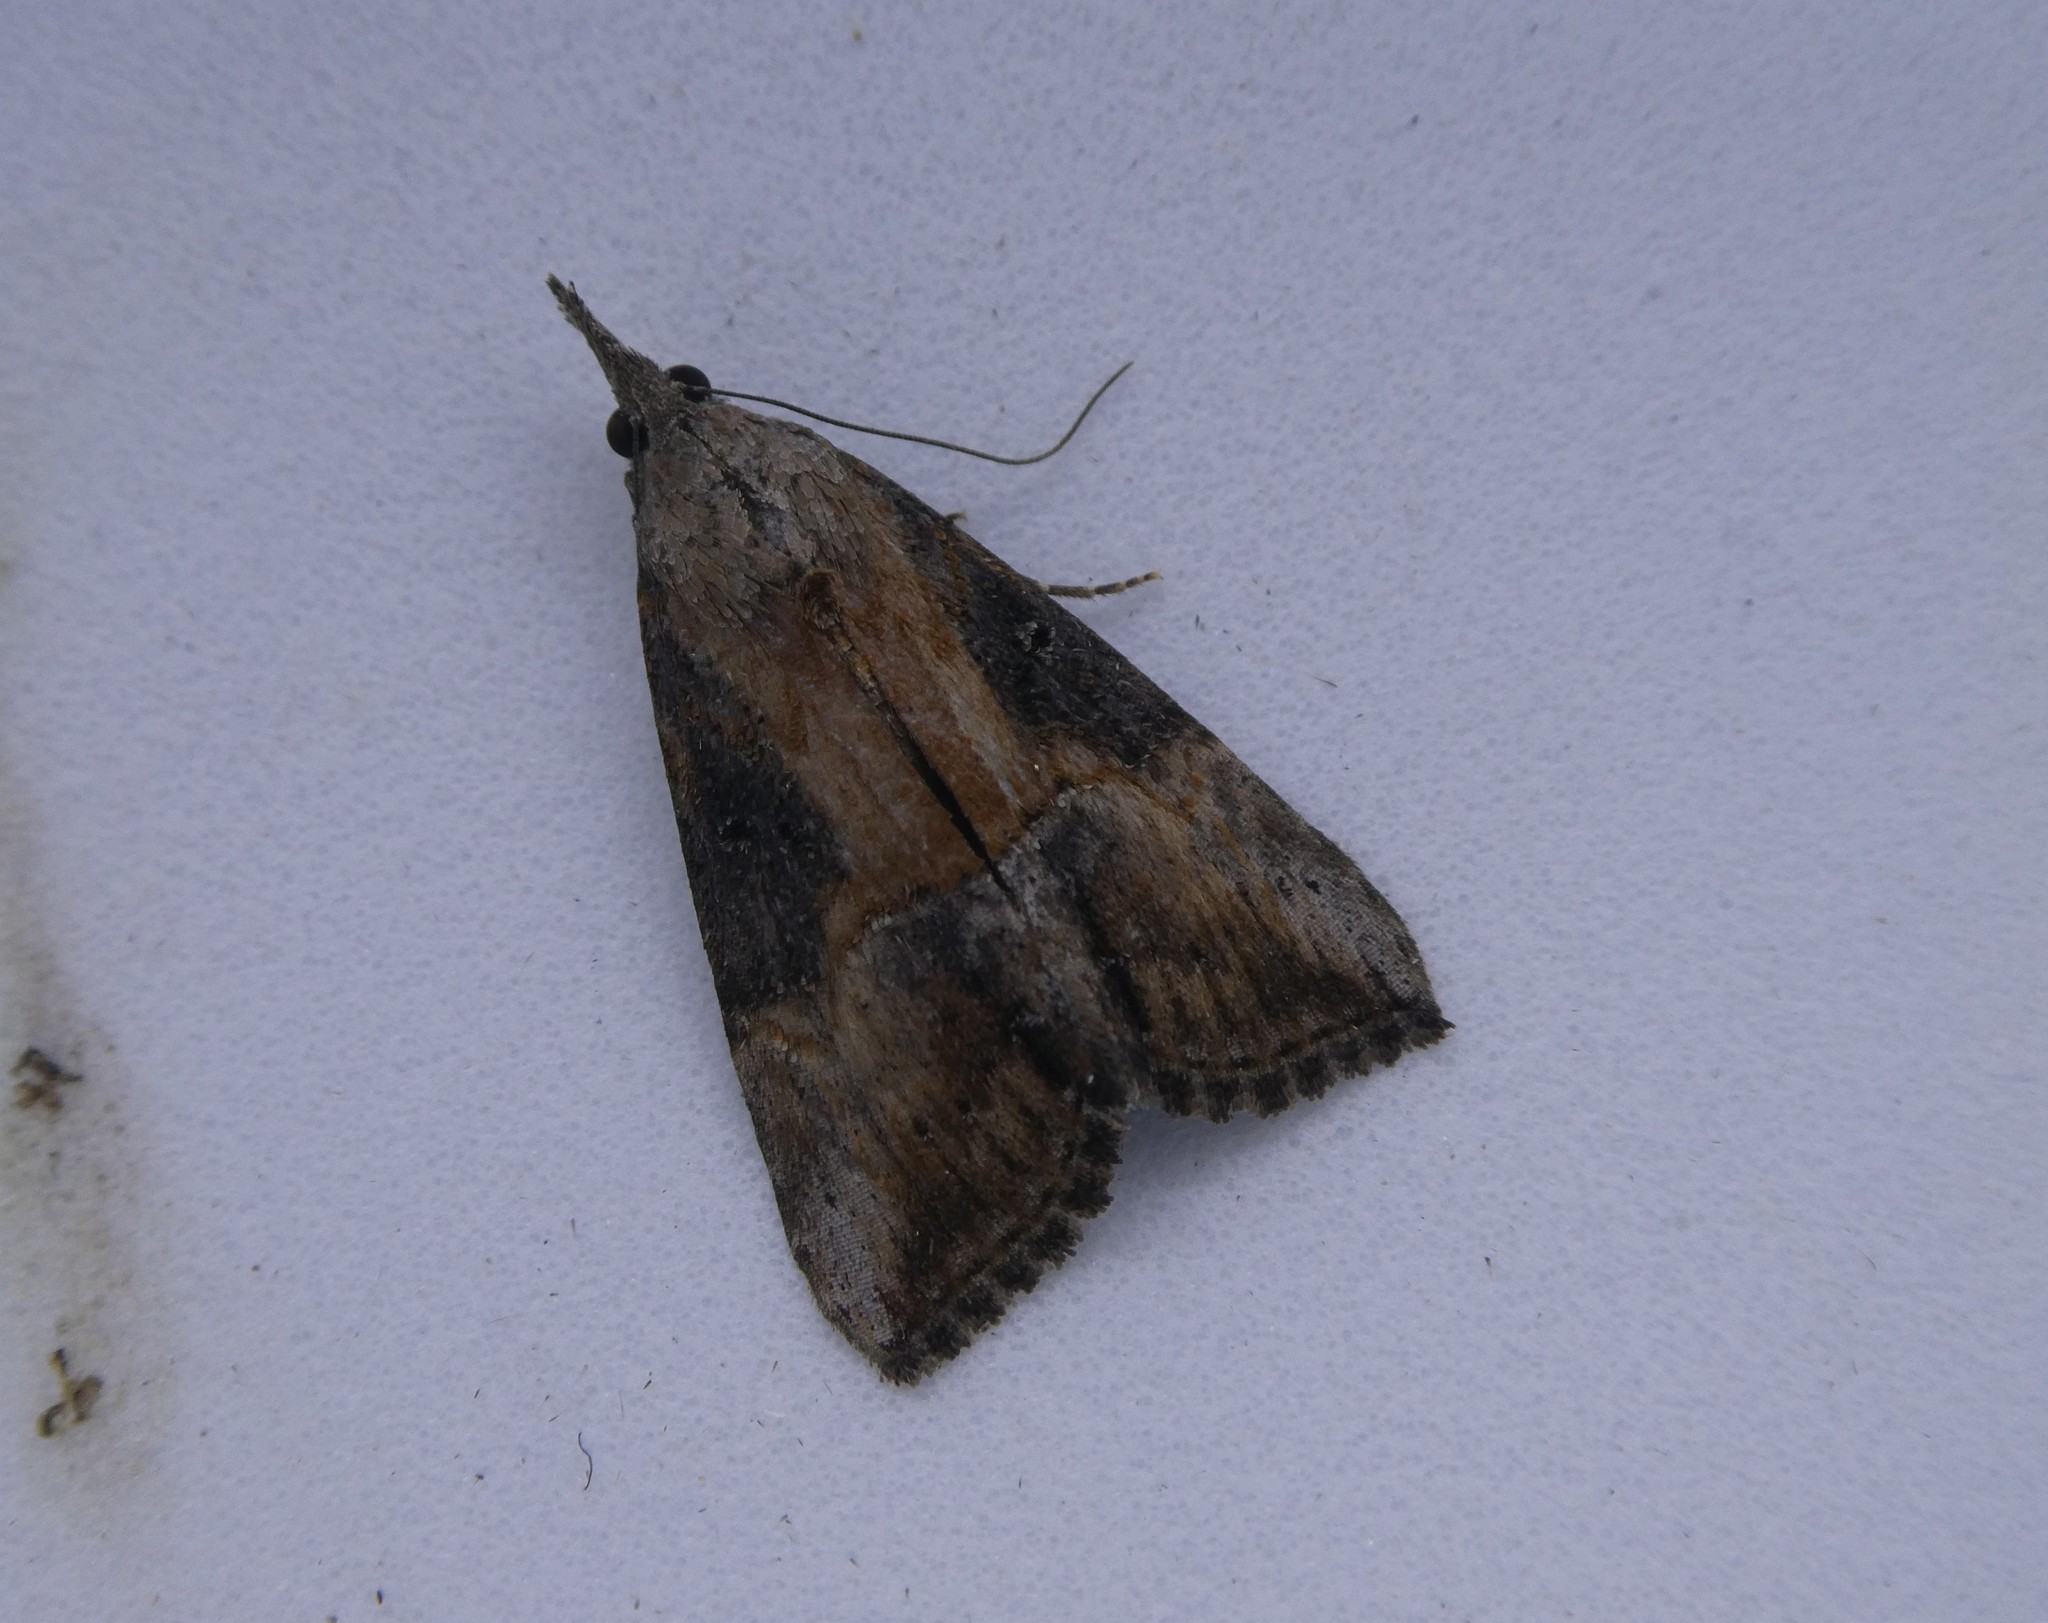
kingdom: Animalia
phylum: Arthropoda
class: Insecta
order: Lepidoptera
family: Erebidae
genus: Hypena
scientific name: Hypena scabra
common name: Green cloverworm
